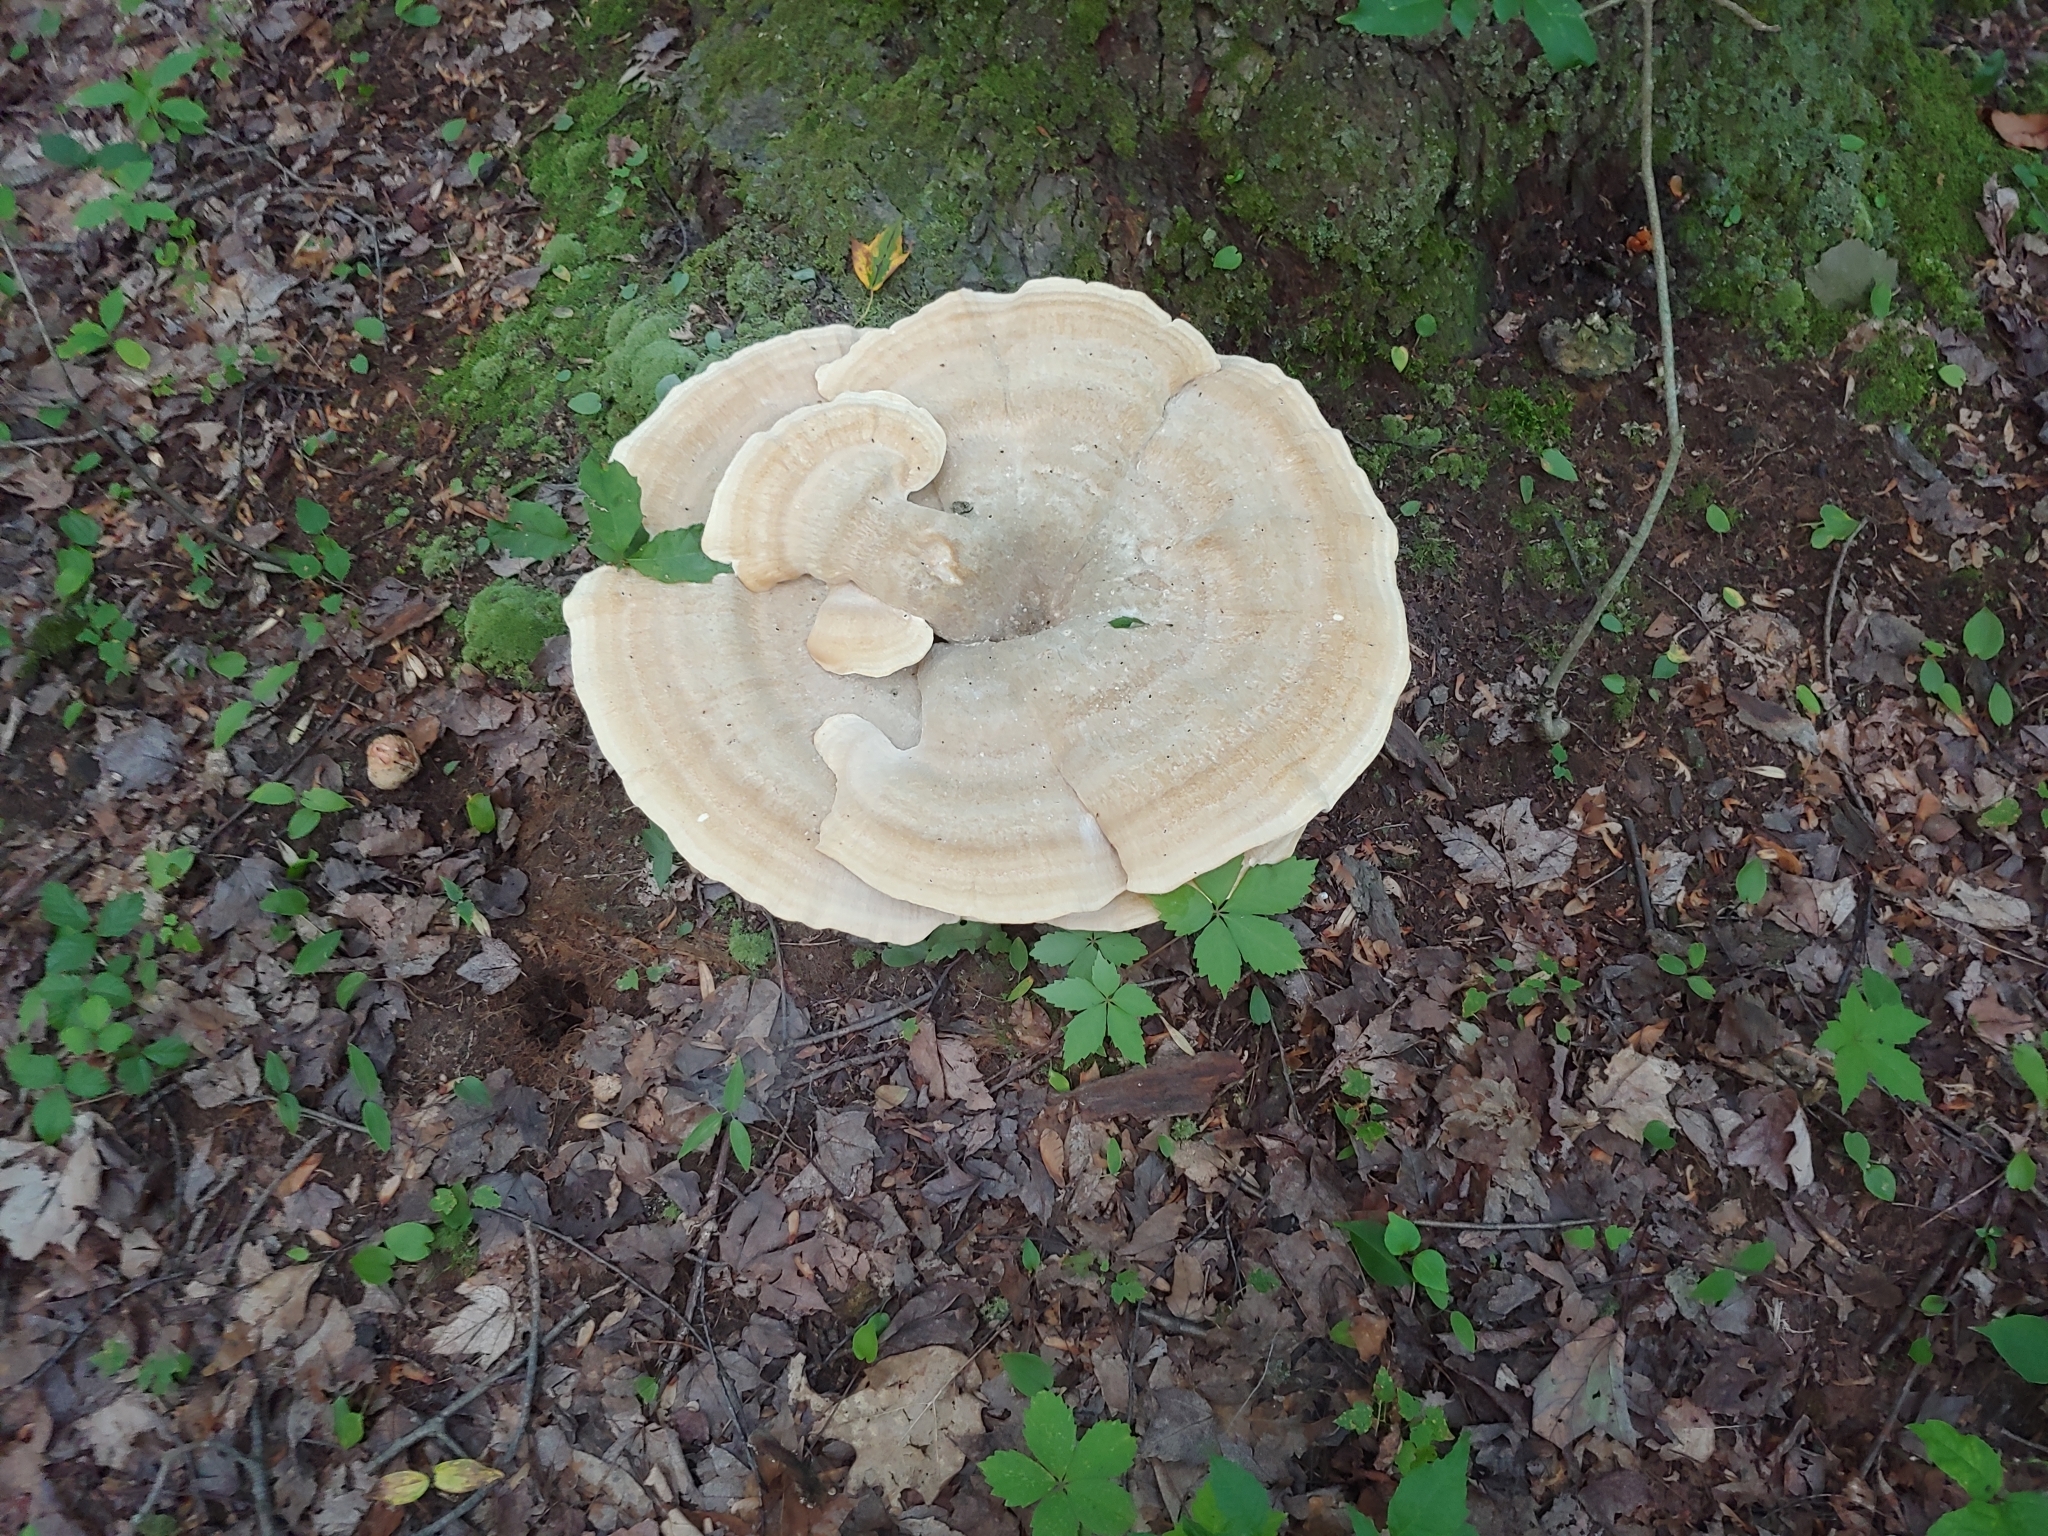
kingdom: Fungi
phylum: Basidiomycota
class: Agaricomycetes
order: Russulales
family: Bondarzewiaceae
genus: Bondarzewia
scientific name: Bondarzewia berkeleyi
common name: Berkeley's polypore
